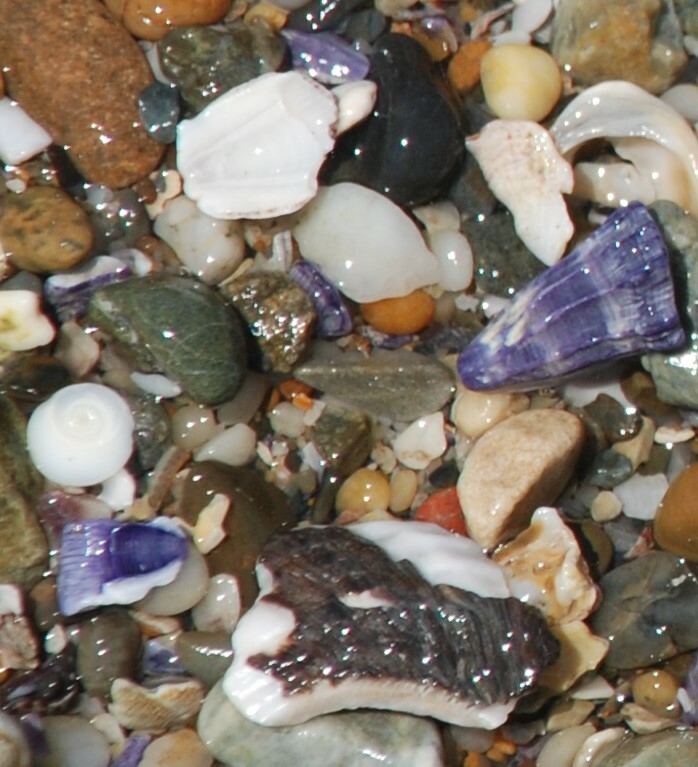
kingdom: Animalia
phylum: Arthropoda
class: Maxillopoda
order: Sessilia
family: Austrobalanidae
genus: Austrobalanus
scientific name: Austrobalanus imperator
